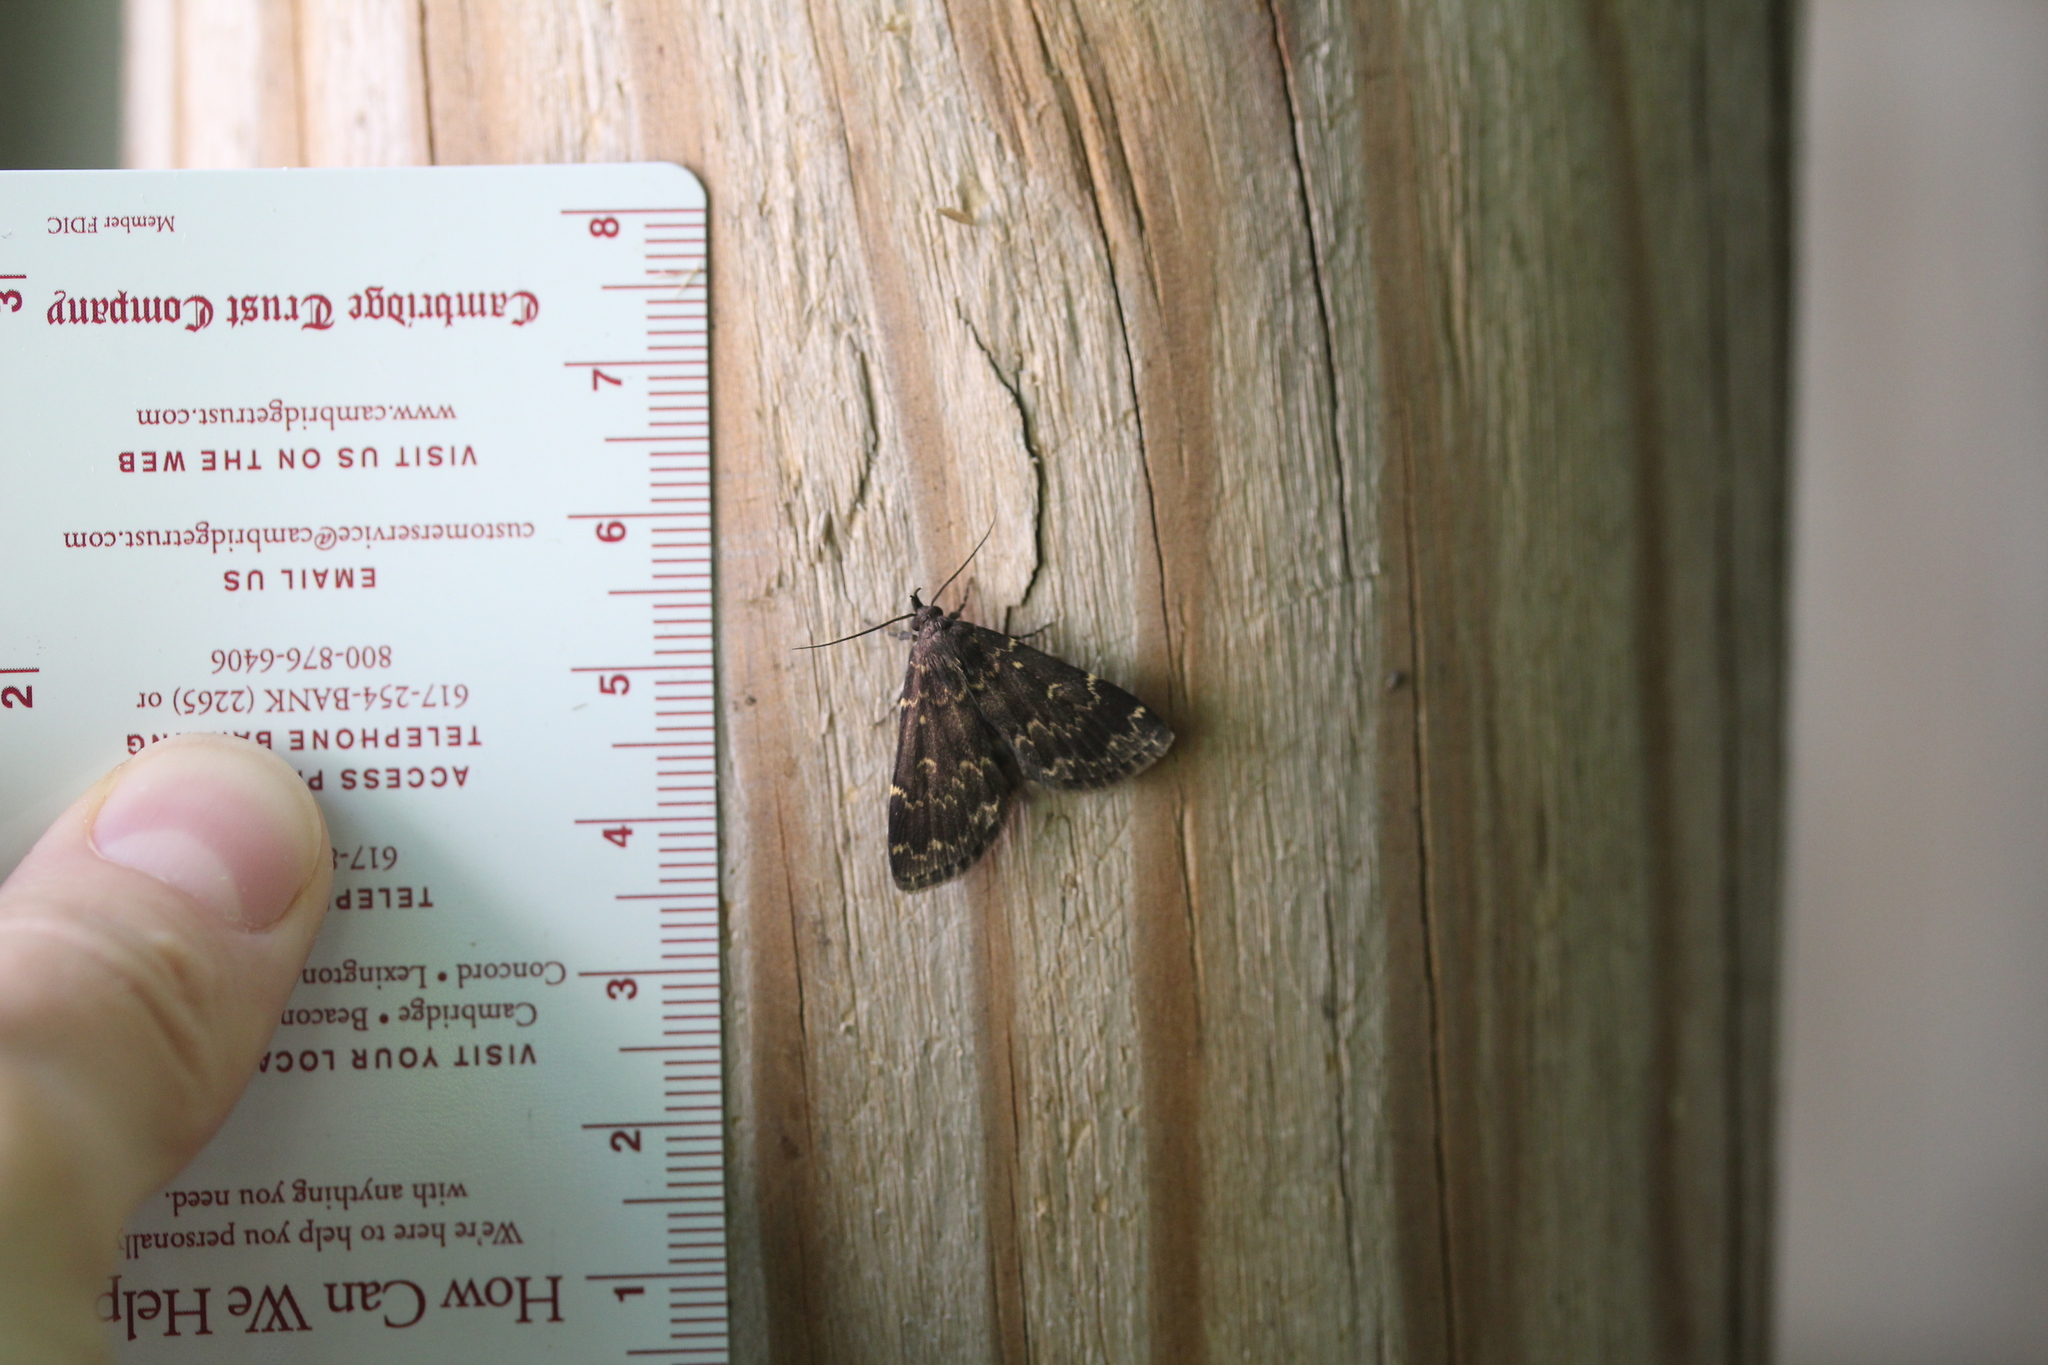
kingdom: Animalia
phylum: Arthropoda
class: Insecta
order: Lepidoptera
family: Erebidae
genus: Idia
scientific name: Idia lubricalis
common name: Twin-striped tabby
